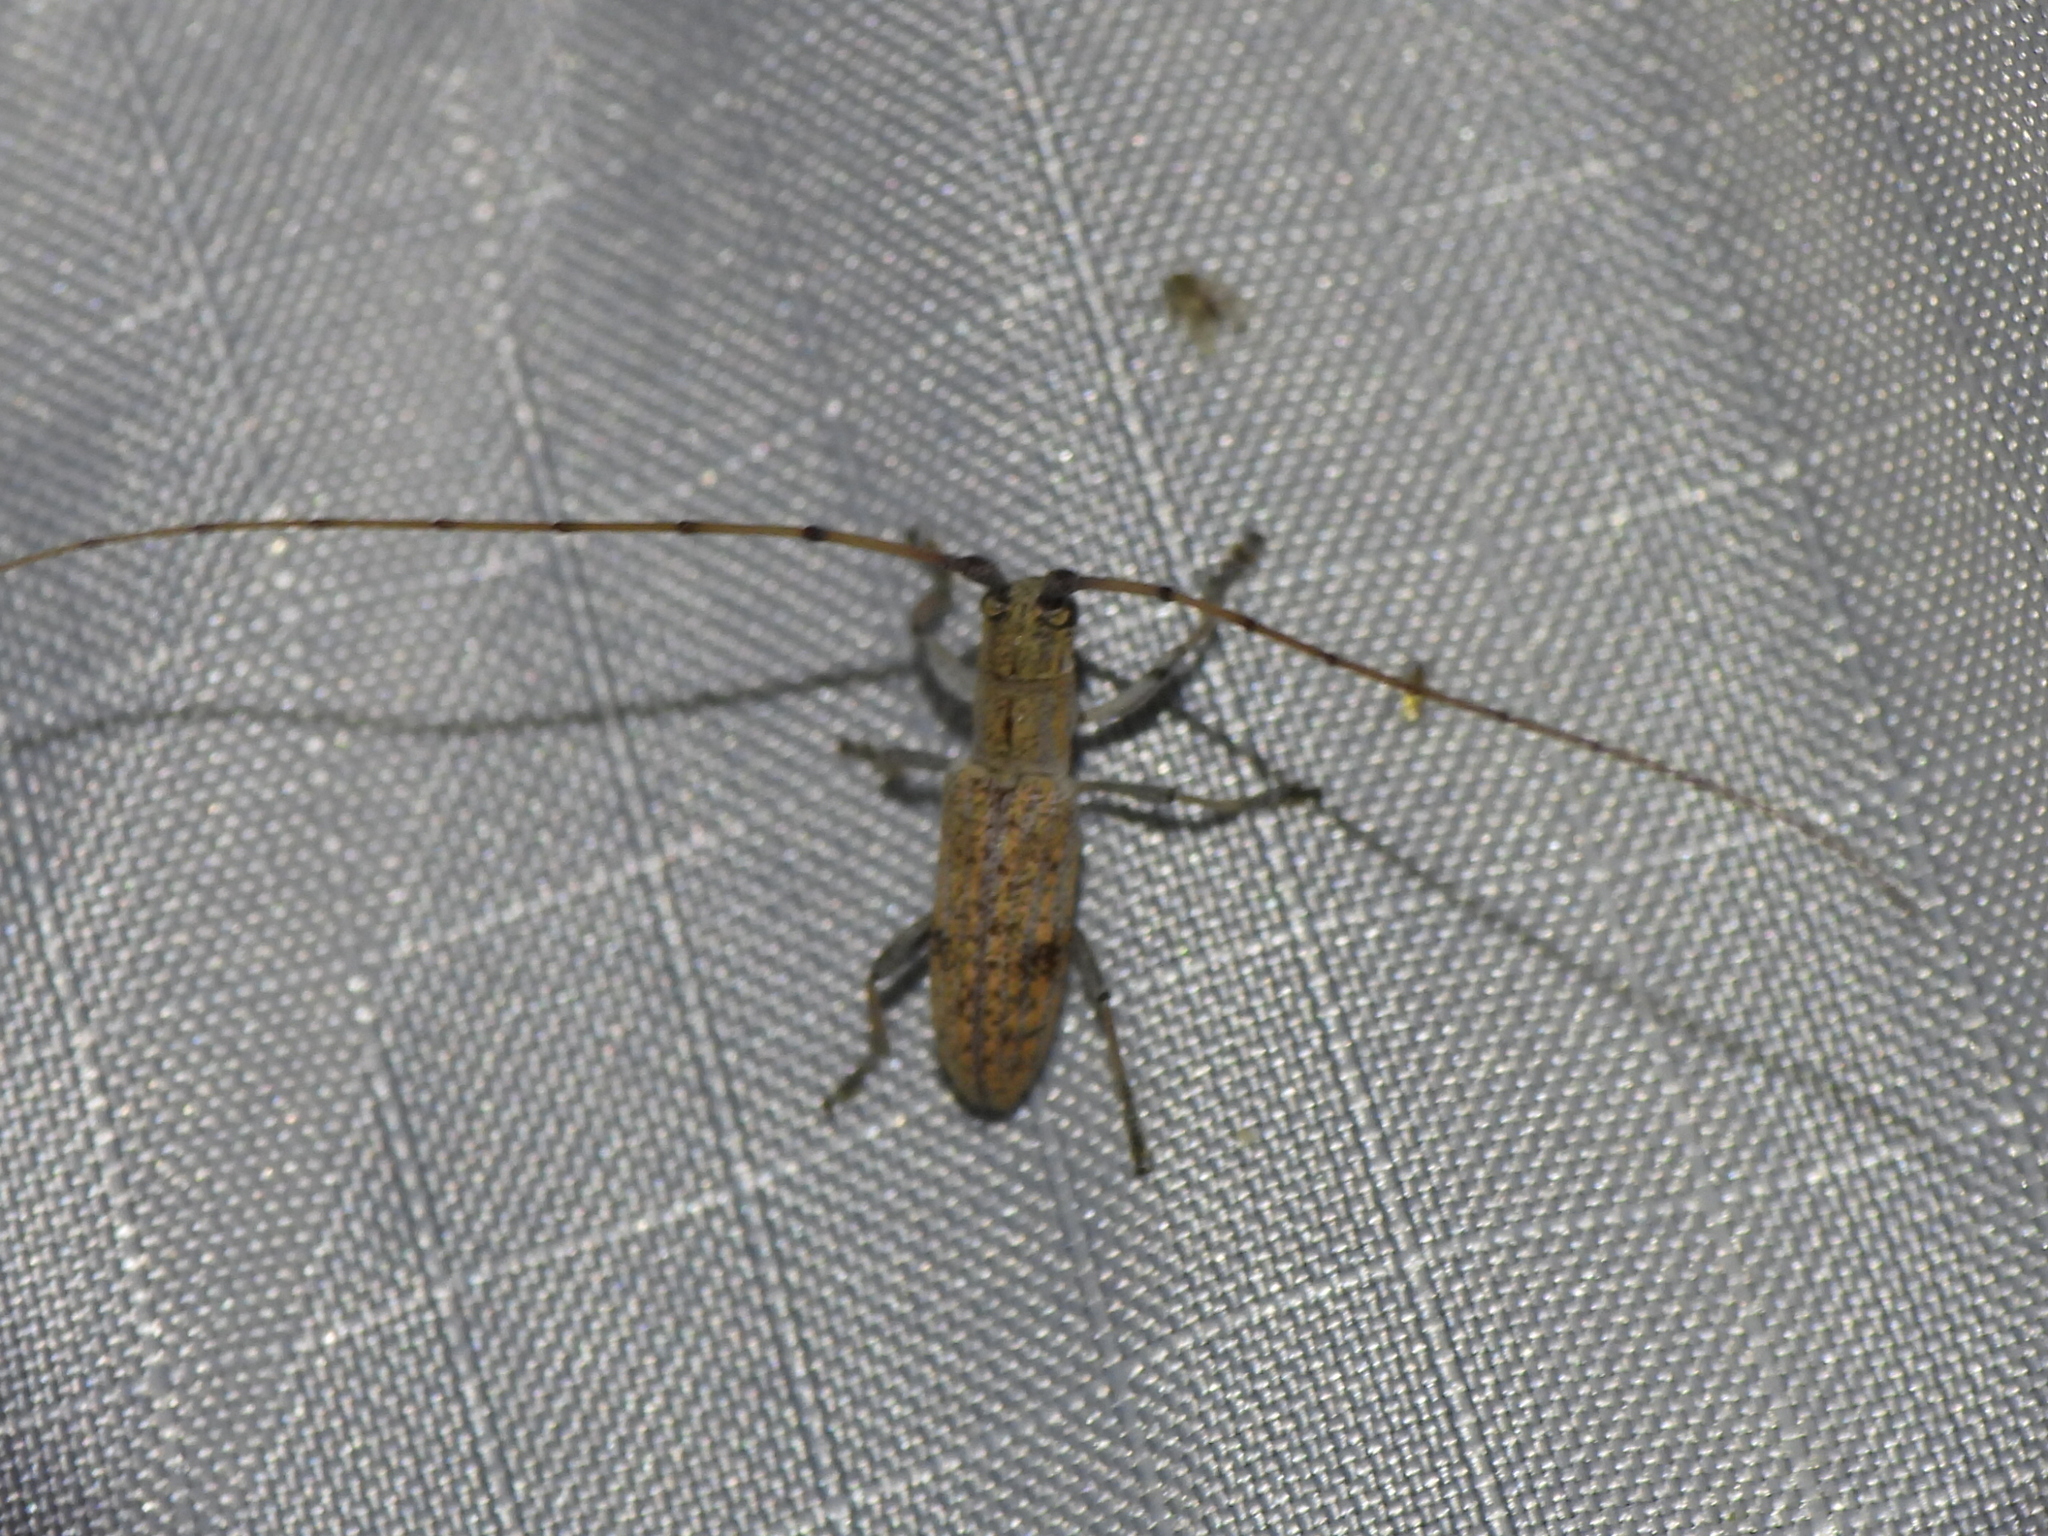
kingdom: Animalia
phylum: Arthropoda
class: Insecta
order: Coleoptera
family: Cerambycidae
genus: Dorcaschema
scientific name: Dorcaschema alternatum
